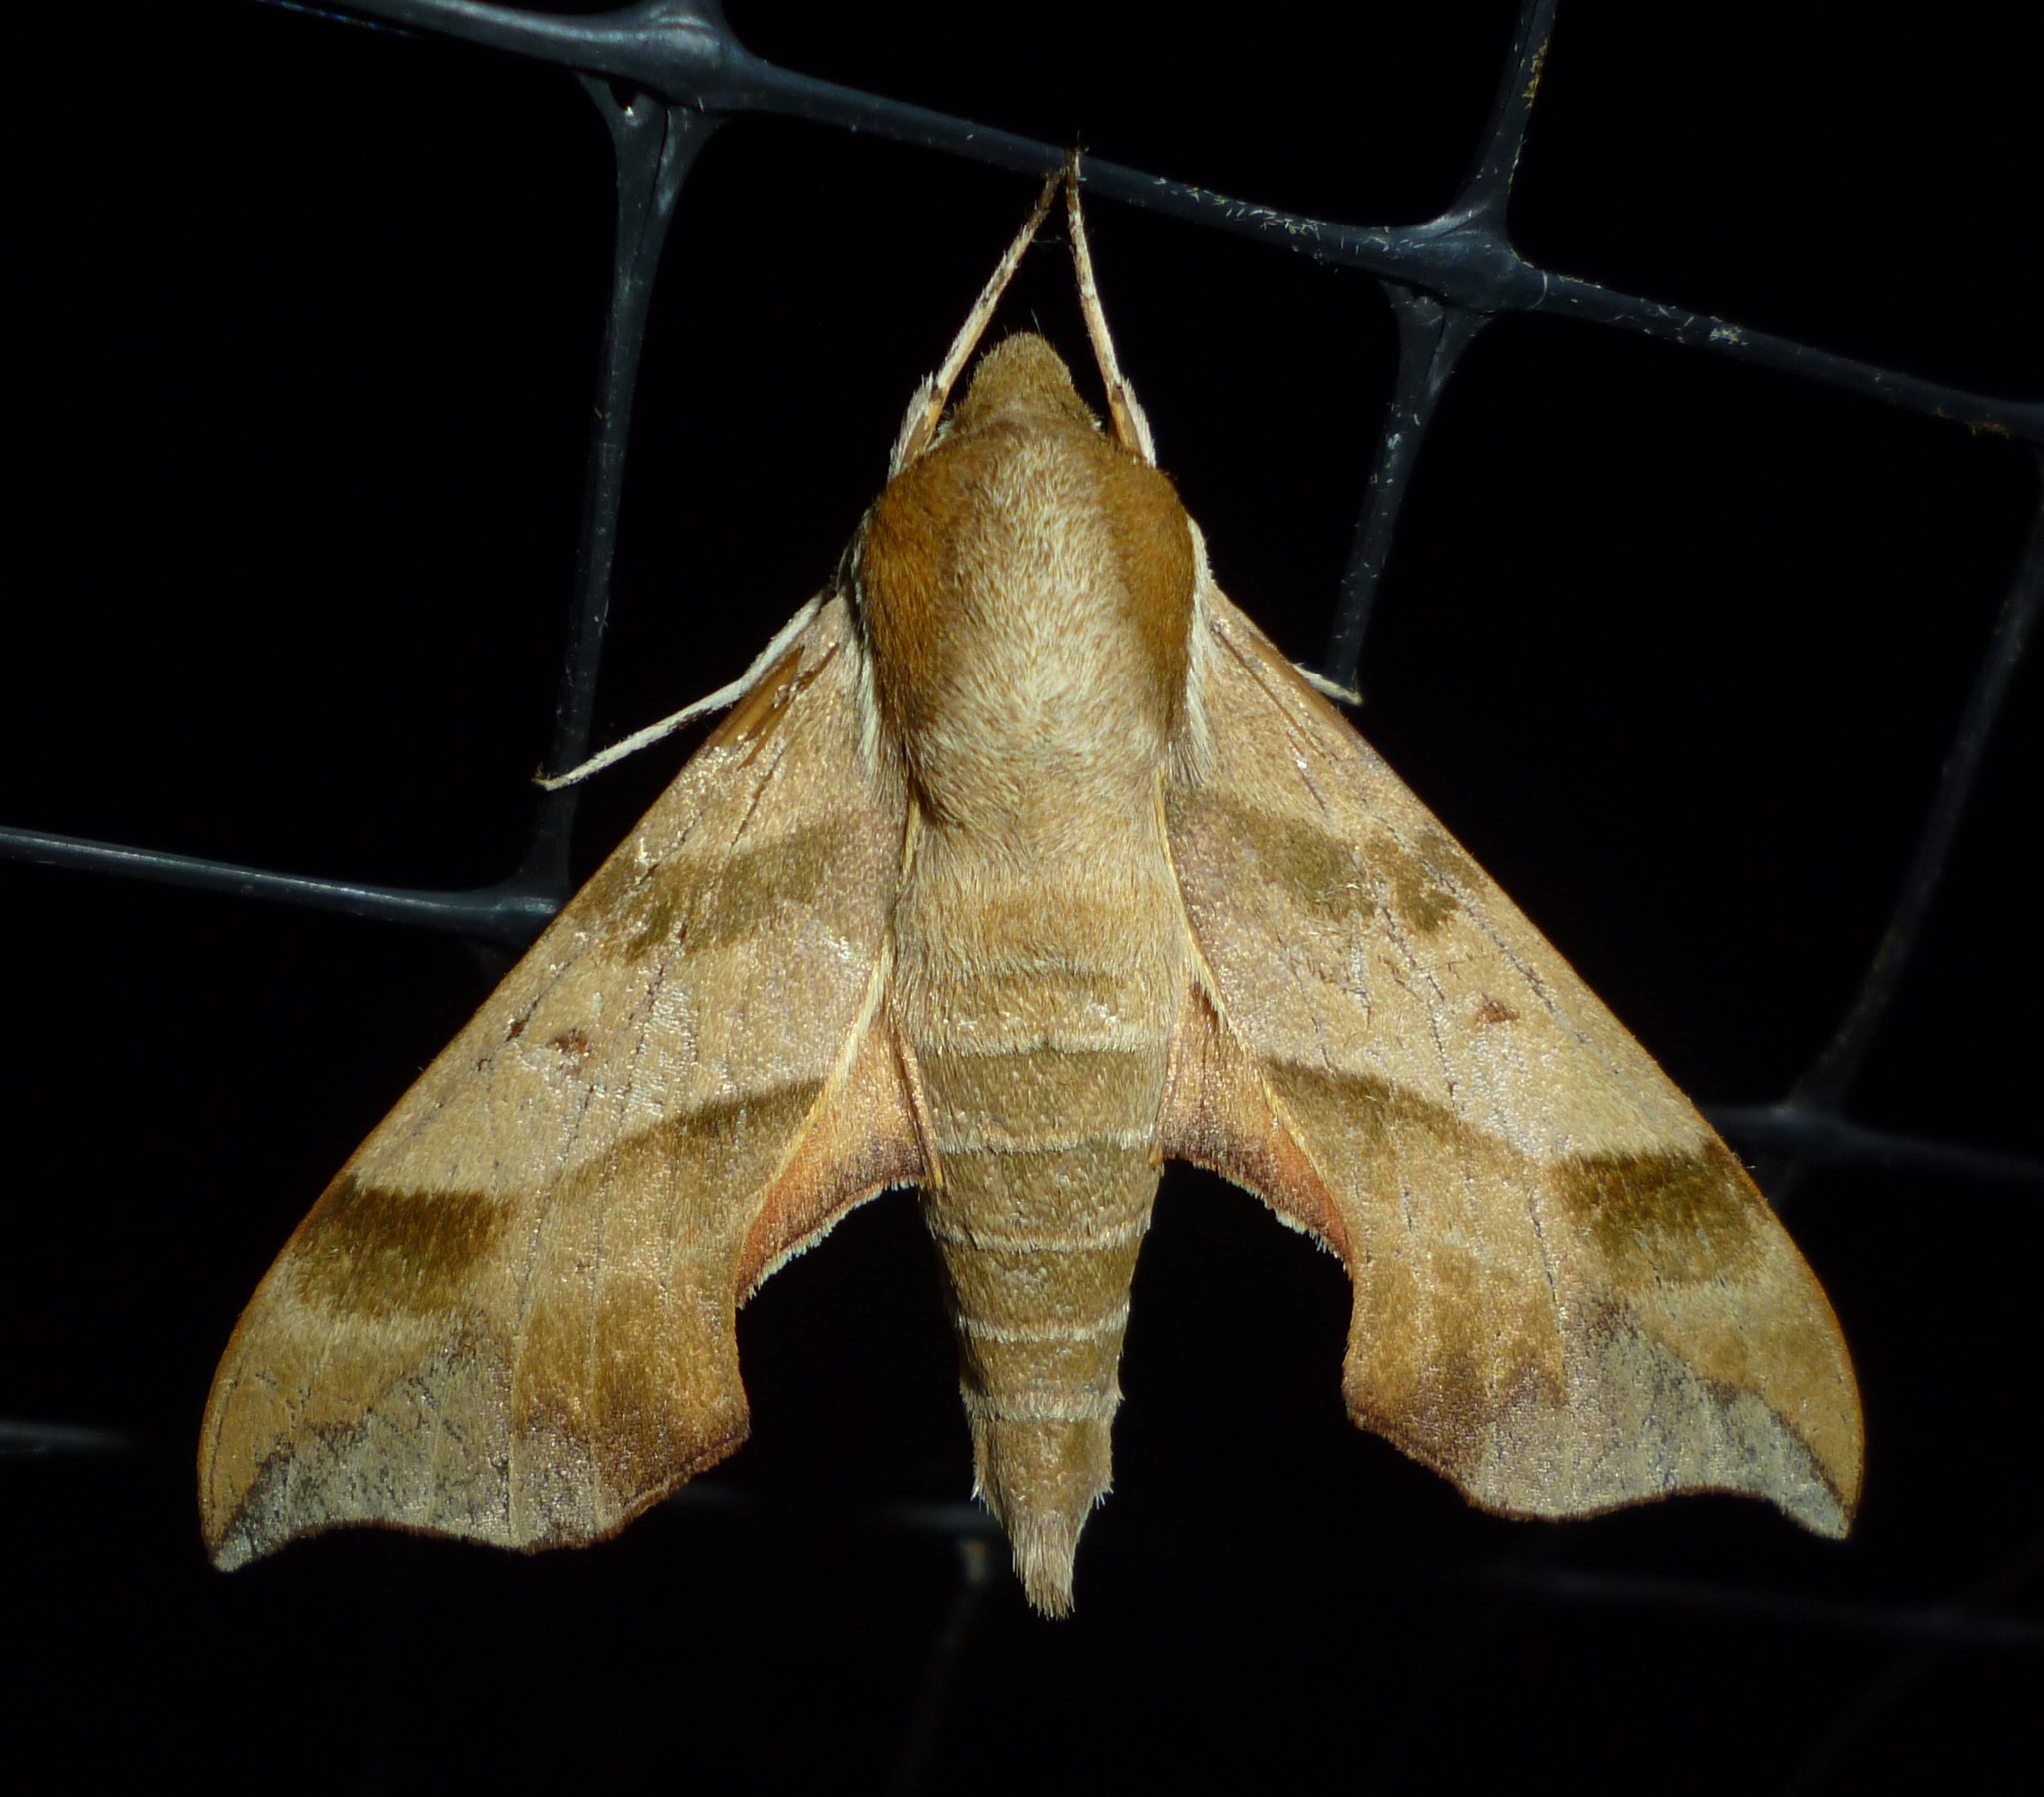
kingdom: Animalia
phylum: Arthropoda
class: Insecta
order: Lepidoptera
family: Sphingidae
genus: Darapsa
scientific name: Darapsa myron
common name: Hog sphinx
